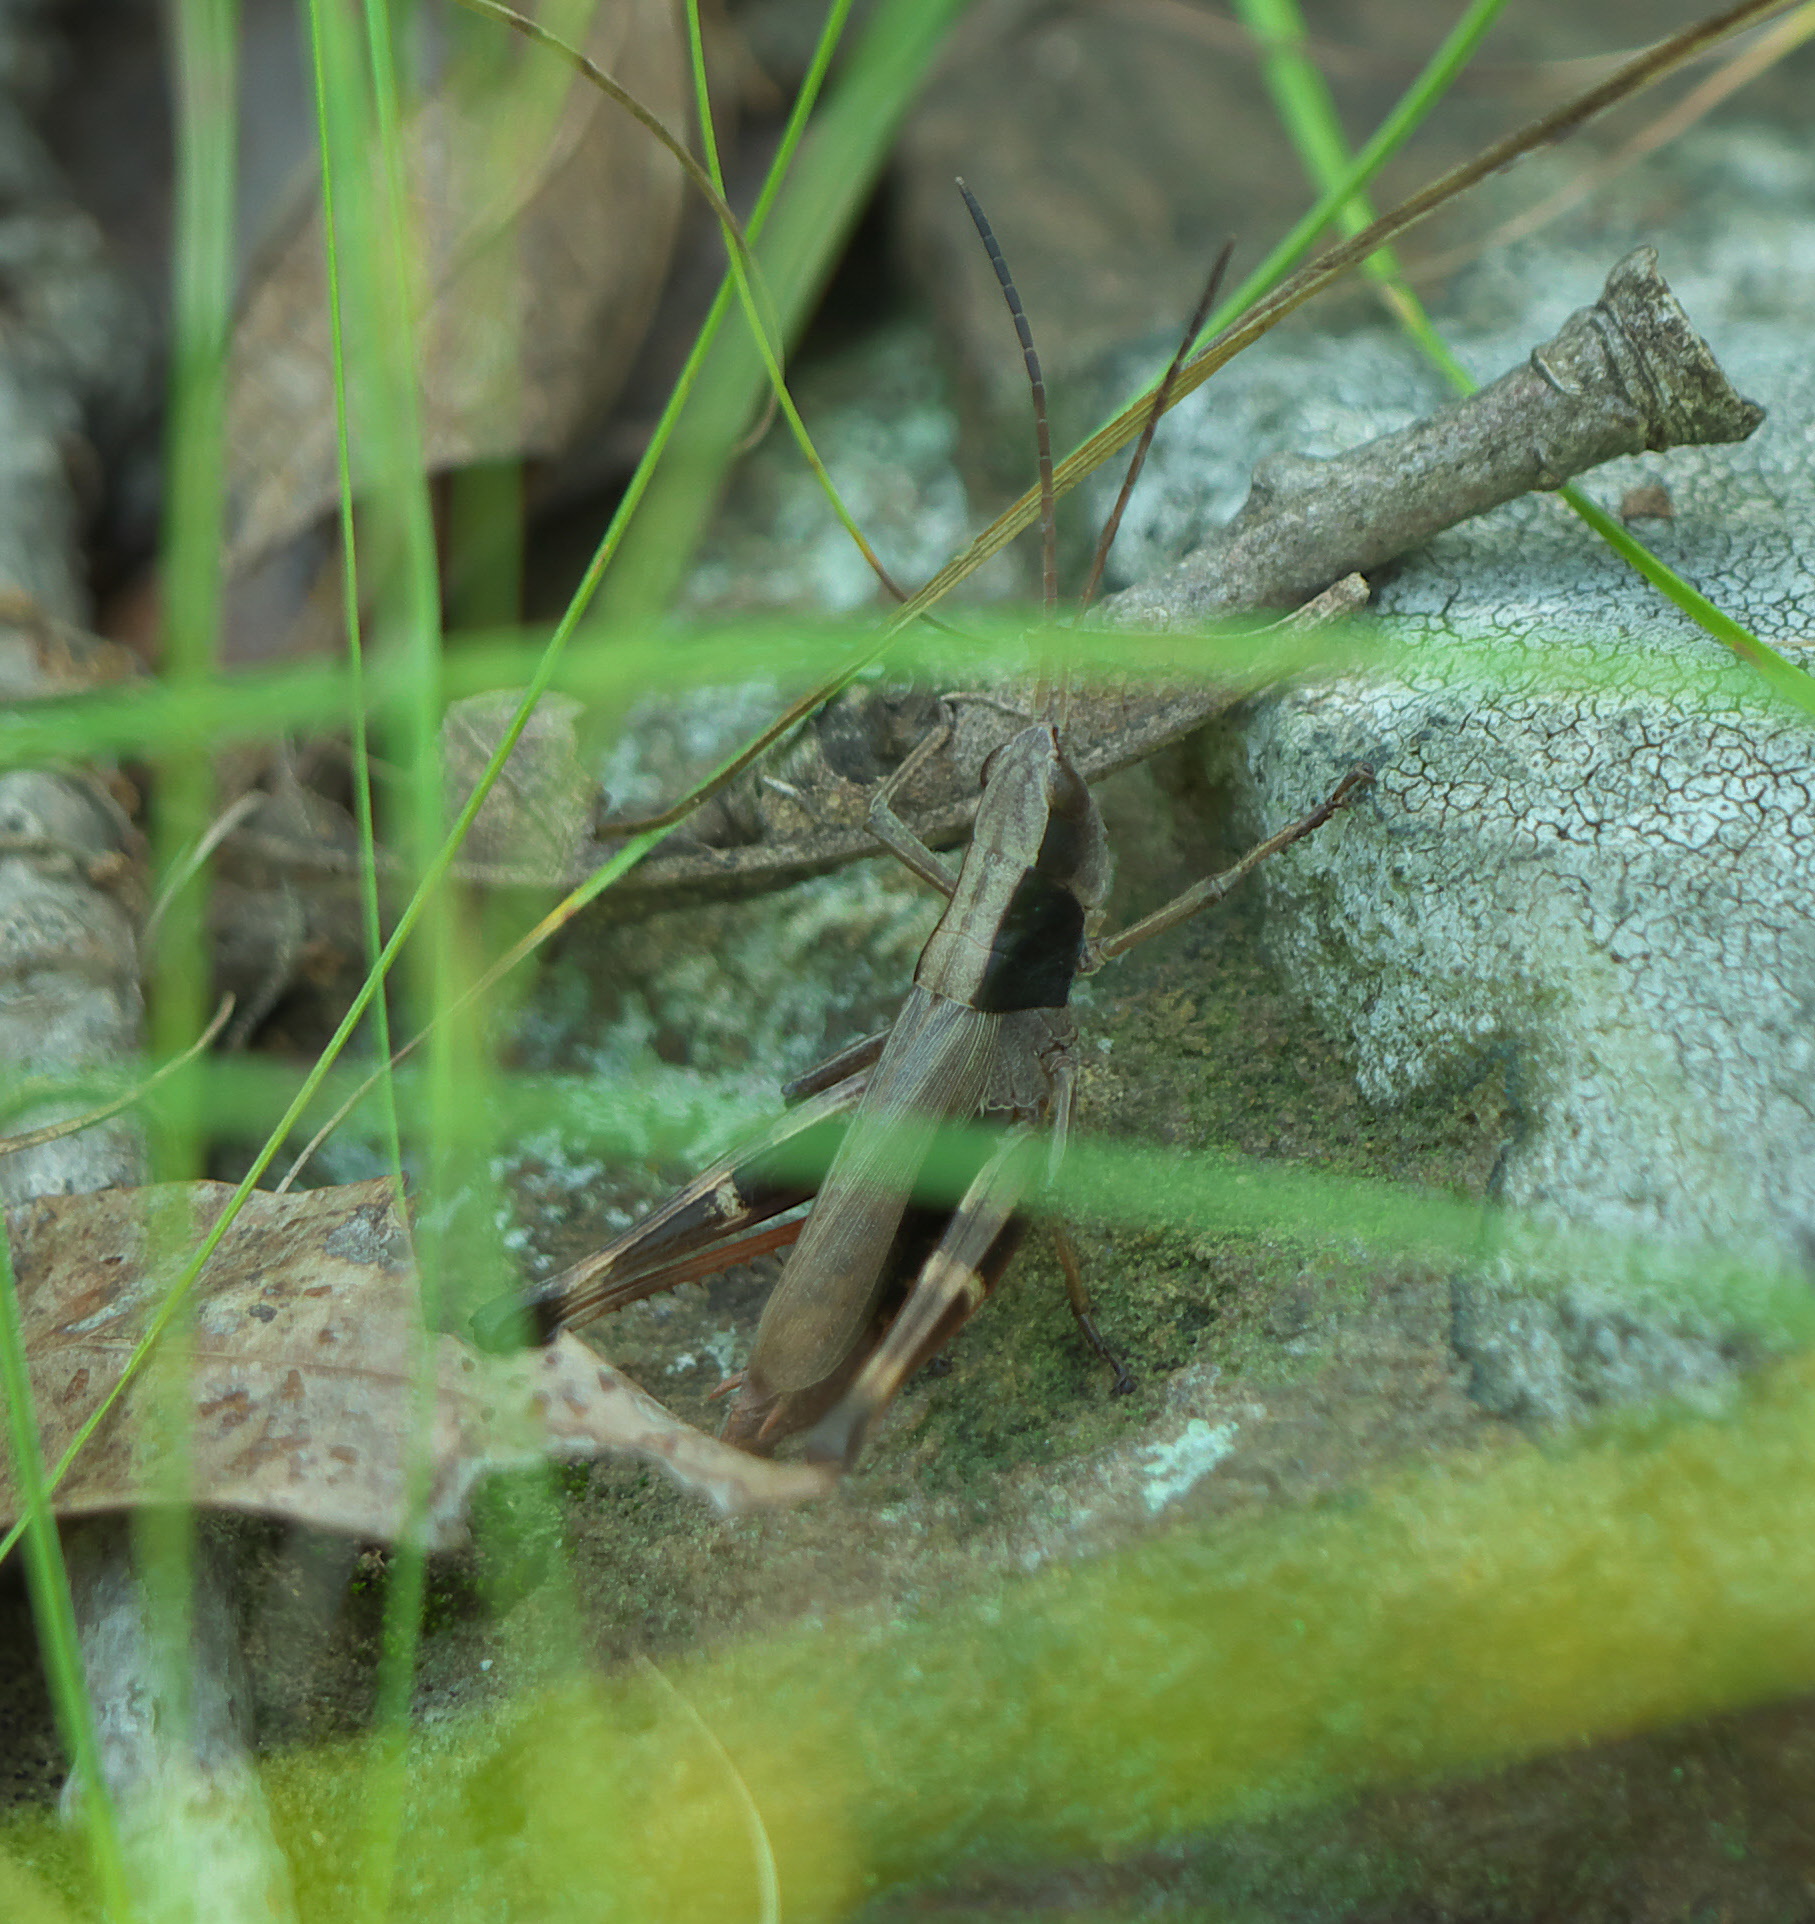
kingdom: Animalia
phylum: Arthropoda
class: Insecta
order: Orthoptera
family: Acrididae
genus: Chloealtis
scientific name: Chloealtis conspersa
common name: Sprinkled broad-winged grasshopper
